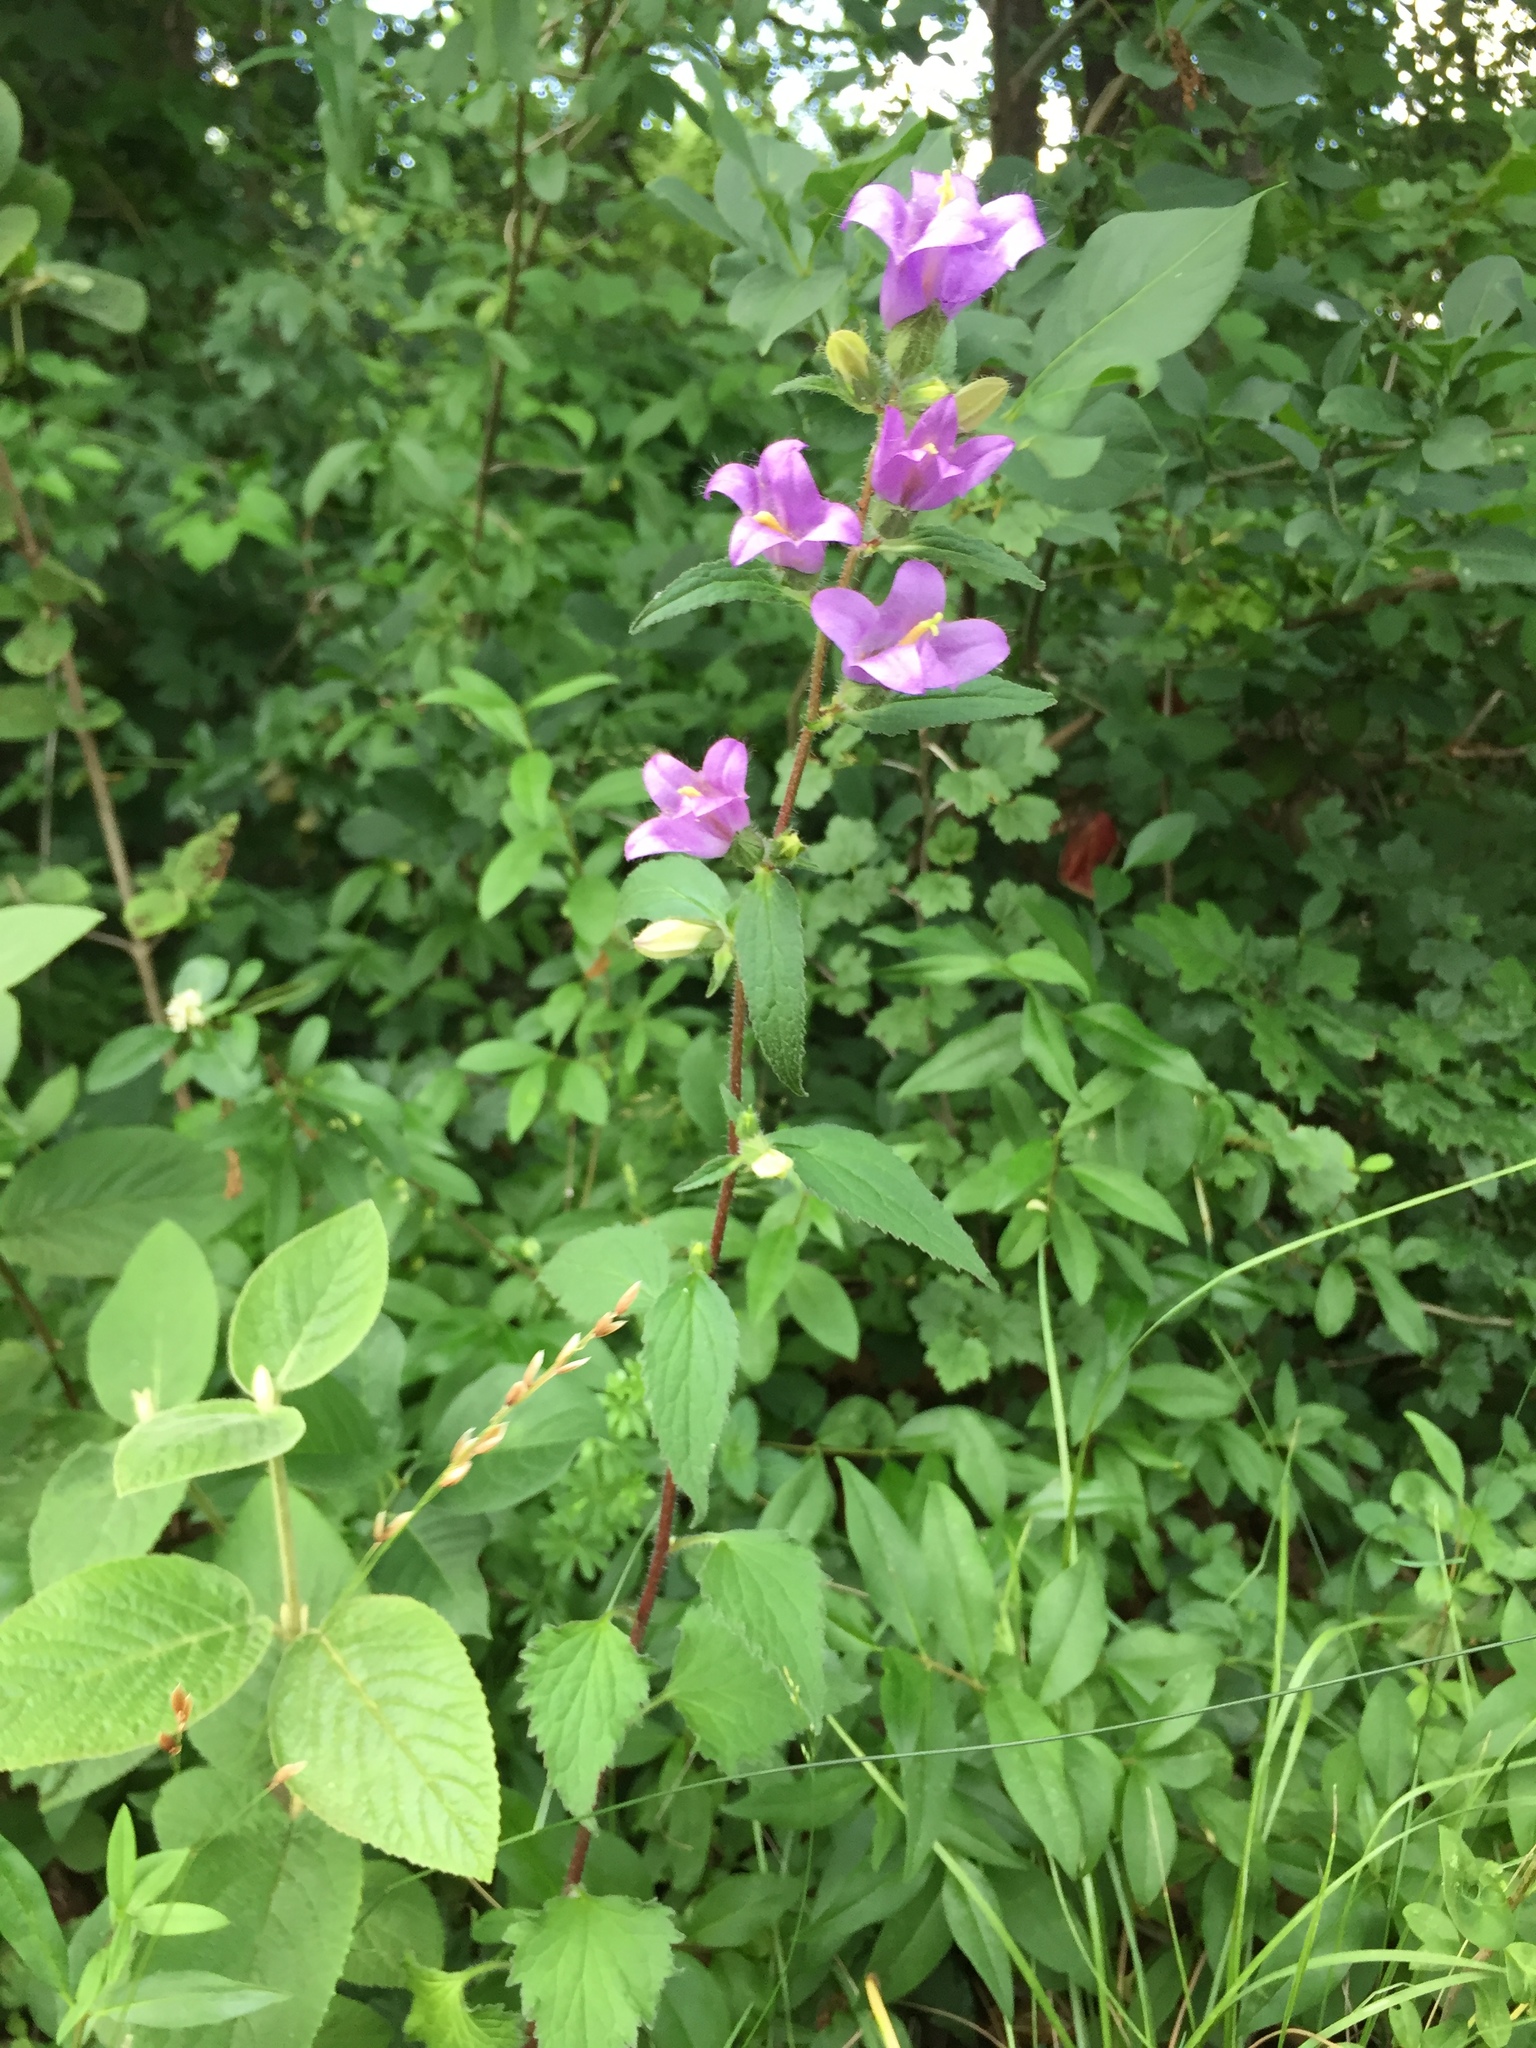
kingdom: Plantae
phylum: Tracheophyta
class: Magnoliopsida
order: Asterales
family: Campanulaceae
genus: Campanula
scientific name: Campanula trachelium
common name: Nettle-leaved bellflower
